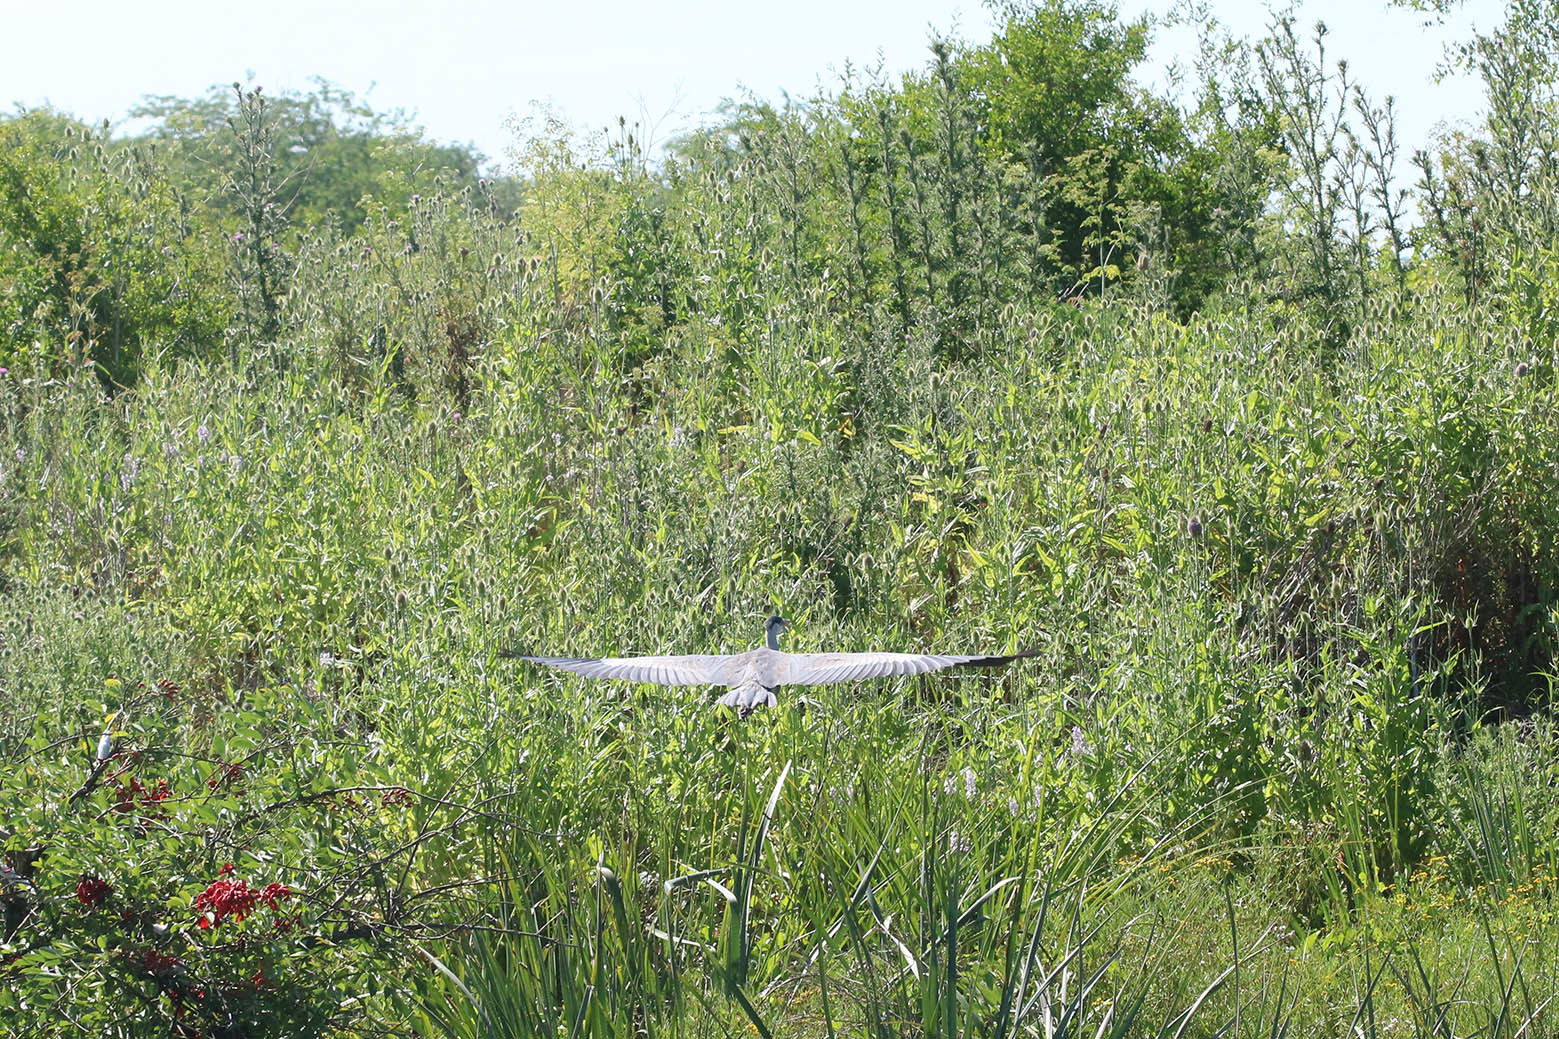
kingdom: Animalia
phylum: Chordata
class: Aves
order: Pelecaniformes
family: Ardeidae
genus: Ardea
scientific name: Ardea cocoi
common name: Cocoi heron
